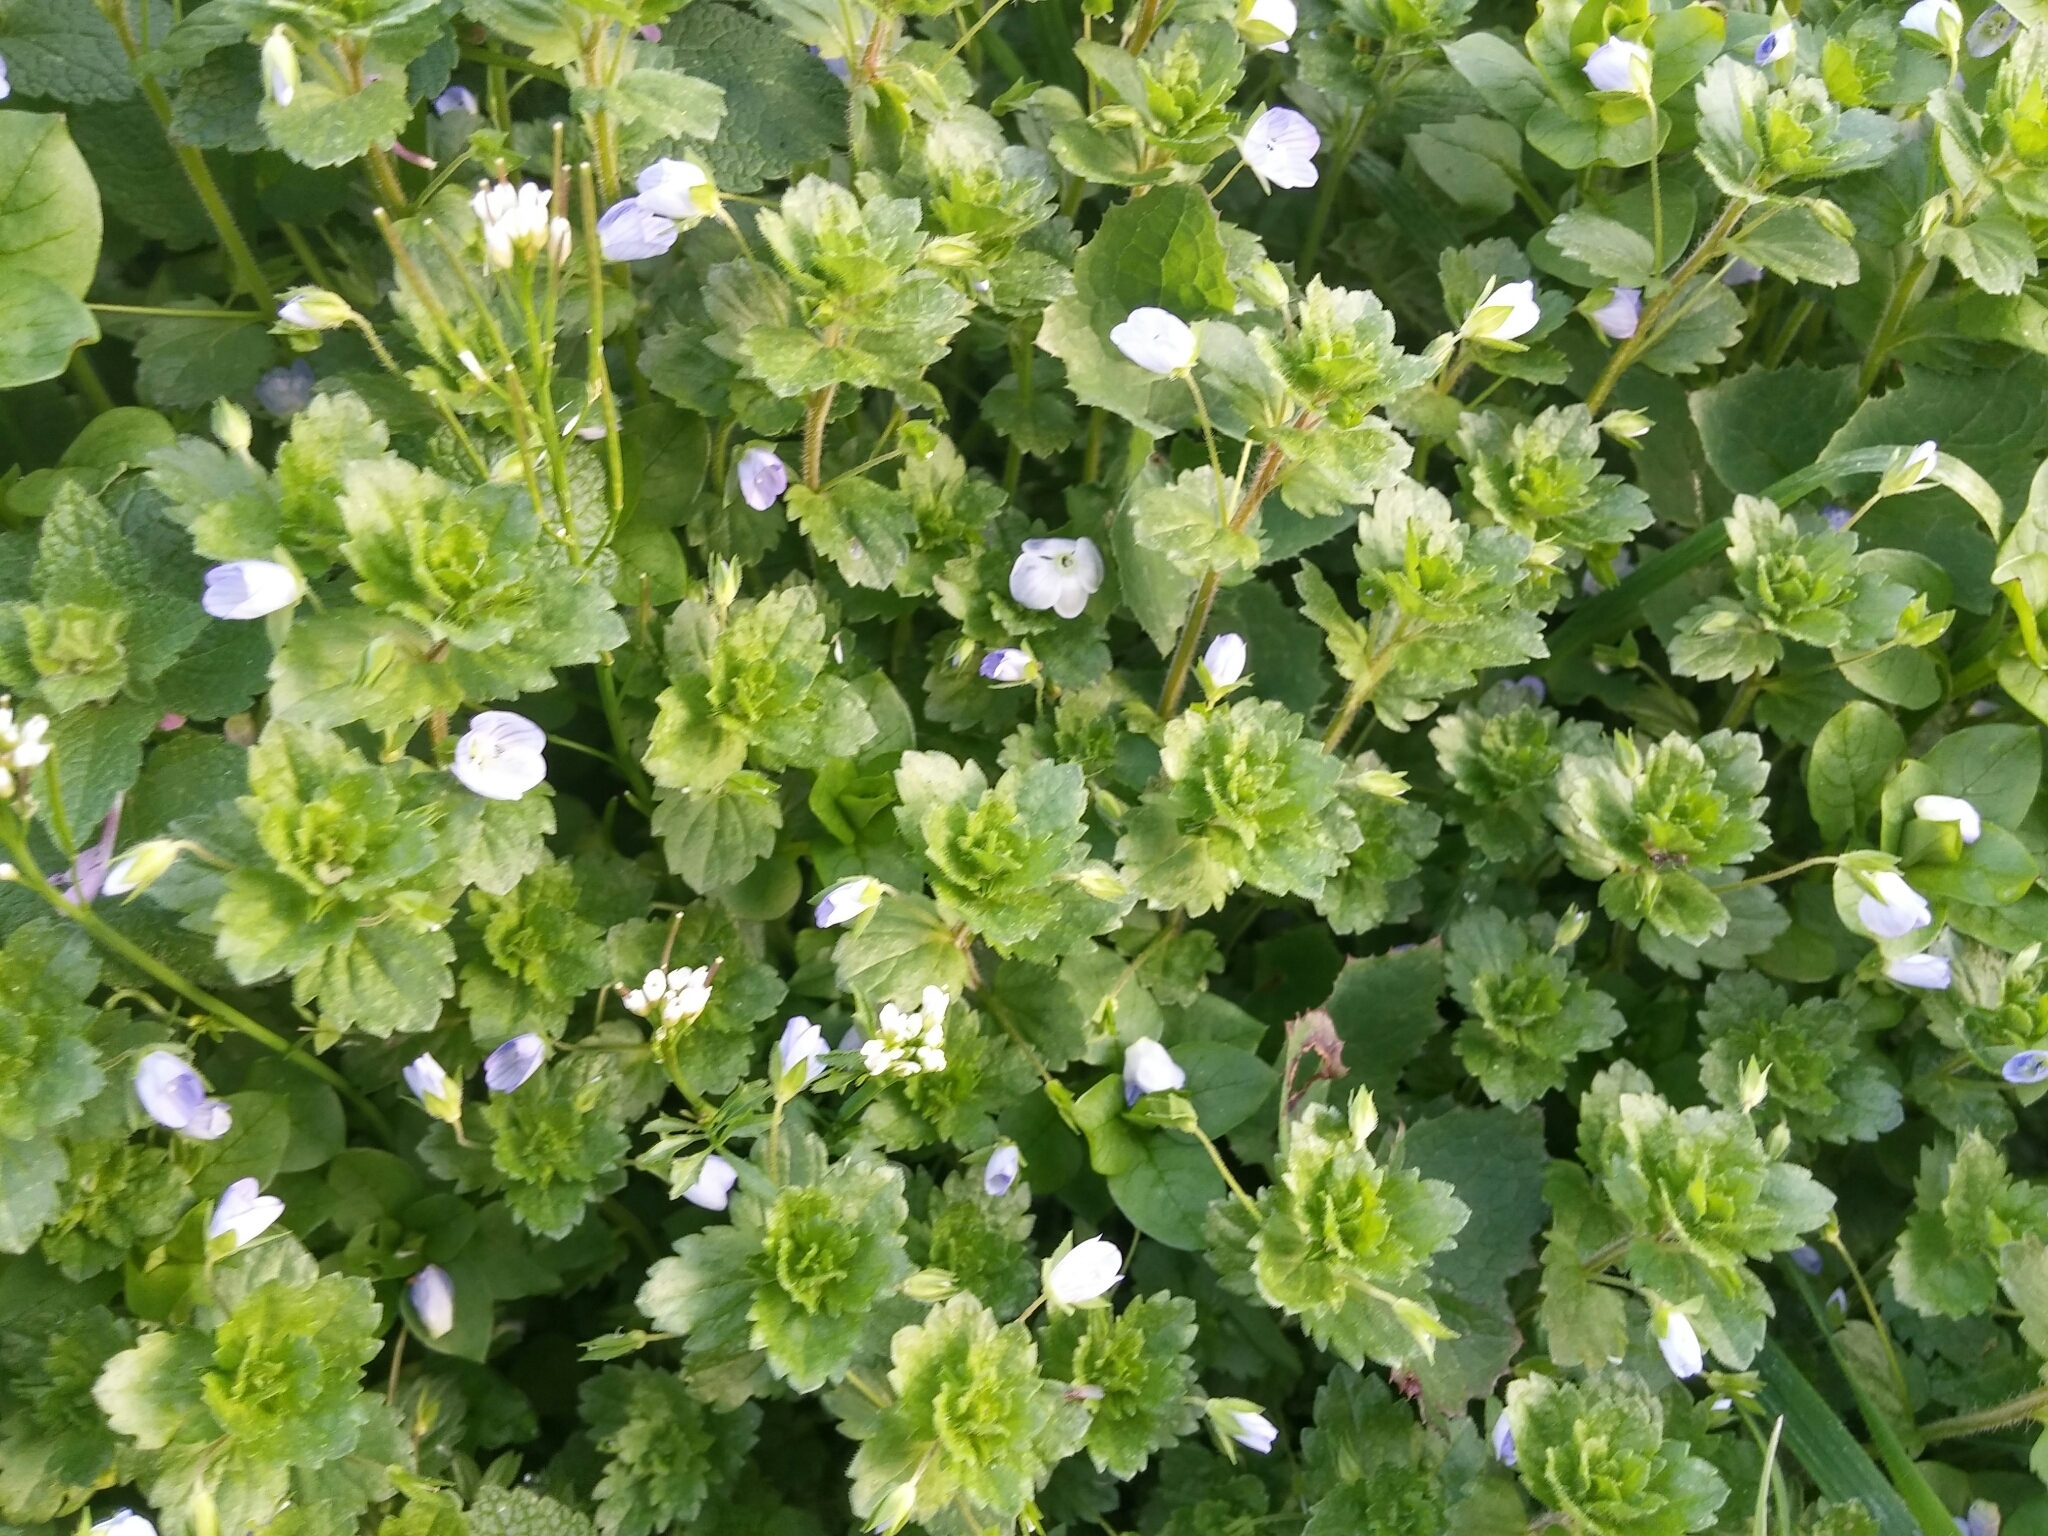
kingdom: Plantae
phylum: Tracheophyta
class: Magnoliopsida
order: Lamiales
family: Plantaginaceae
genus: Veronica
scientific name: Veronica persica
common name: Common field-speedwell
